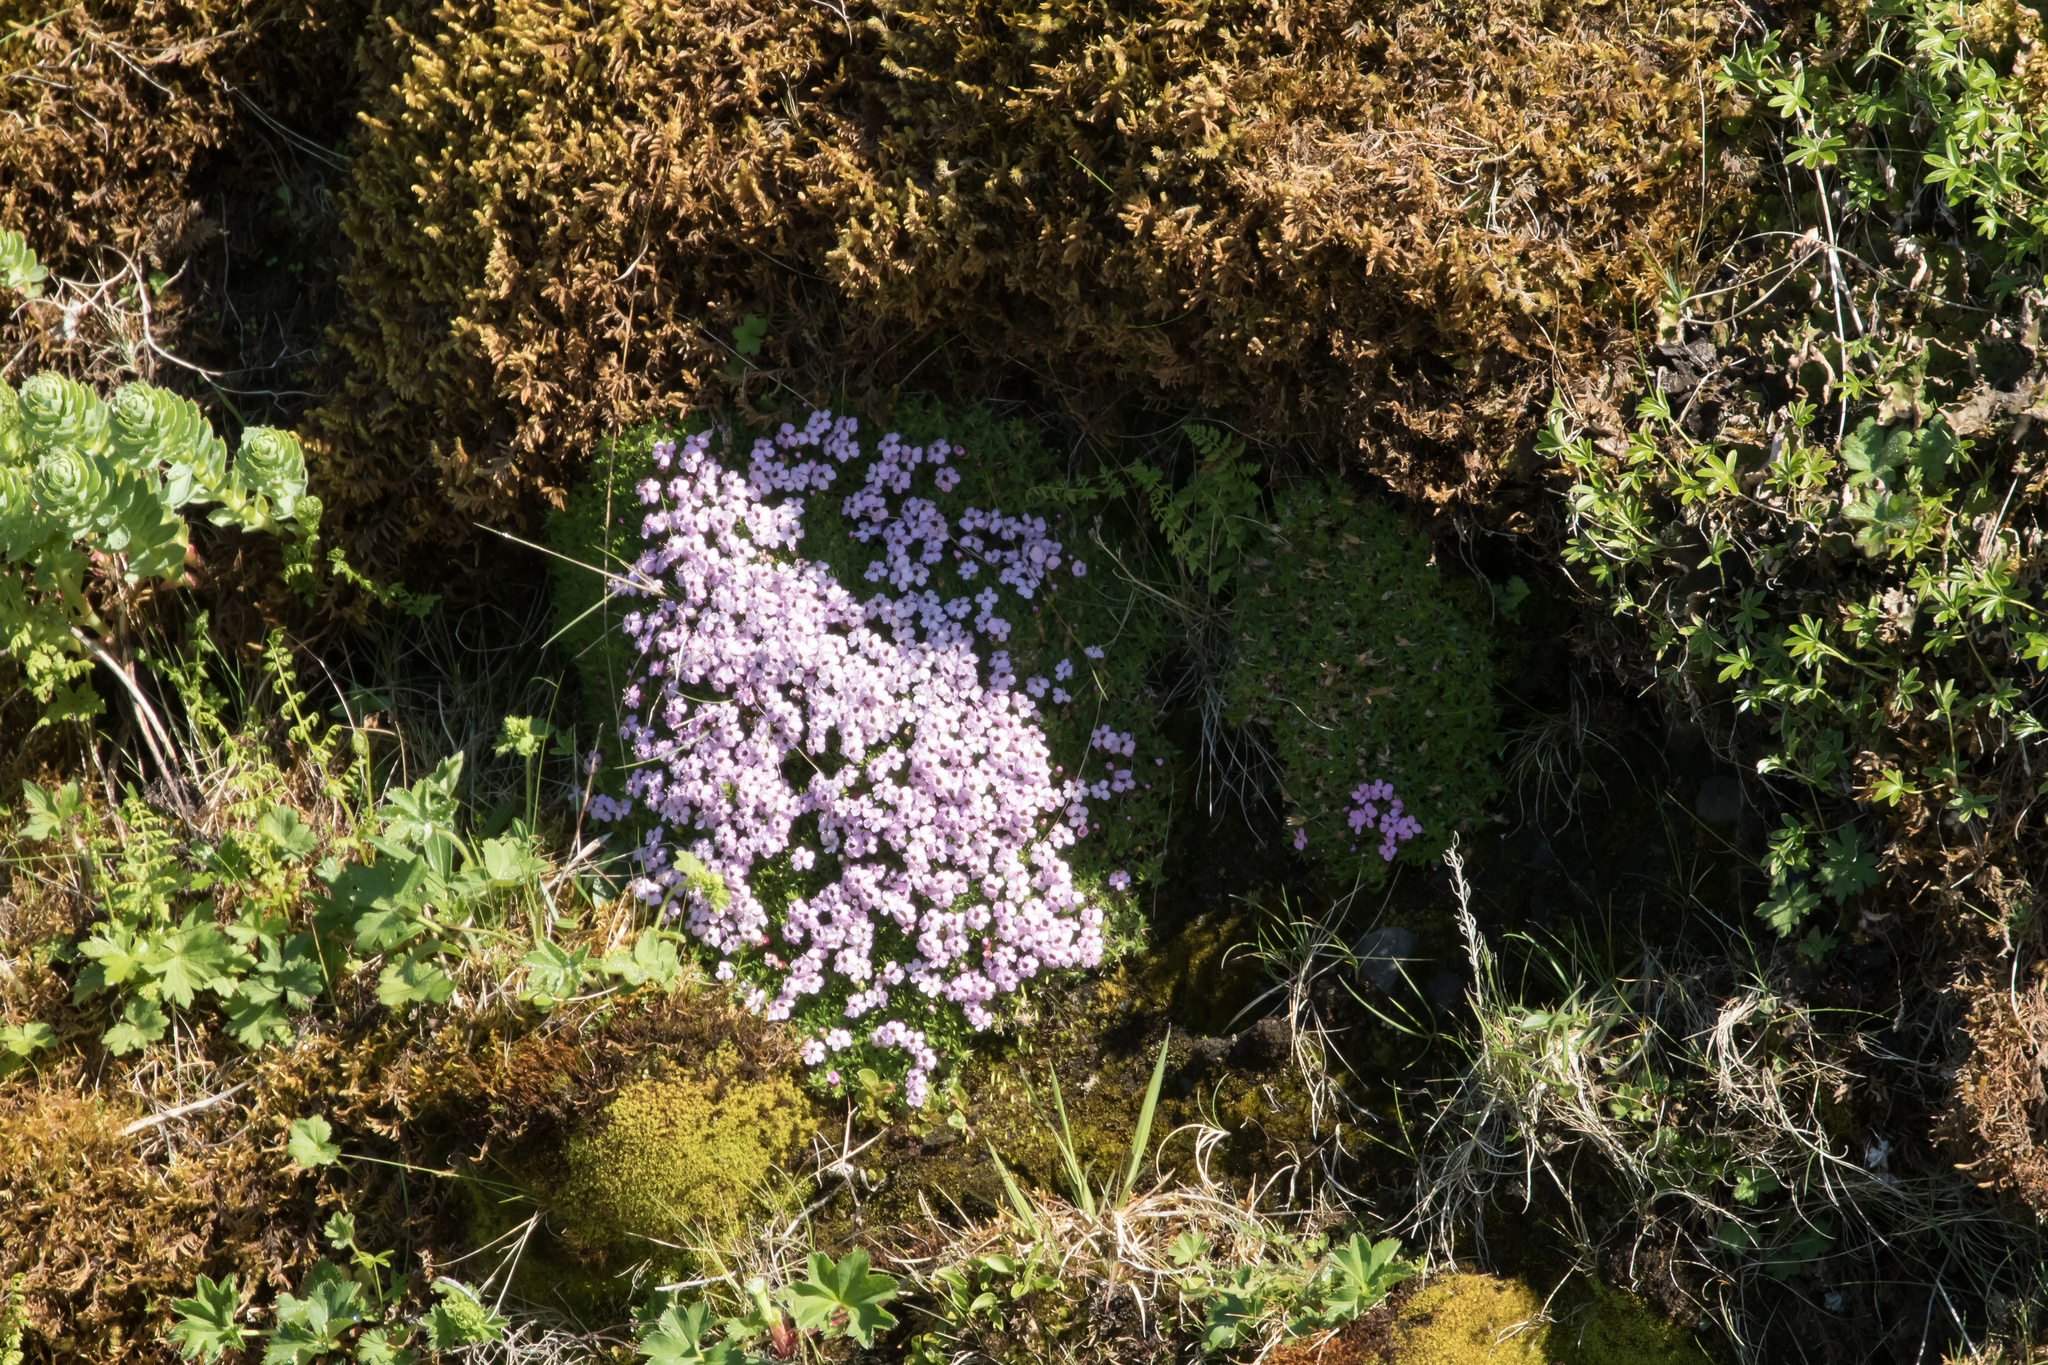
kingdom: Plantae
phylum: Tracheophyta
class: Magnoliopsida
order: Caryophyllales
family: Caryophyllaceae
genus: Silene
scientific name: Silene acaulis
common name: Moss campion
